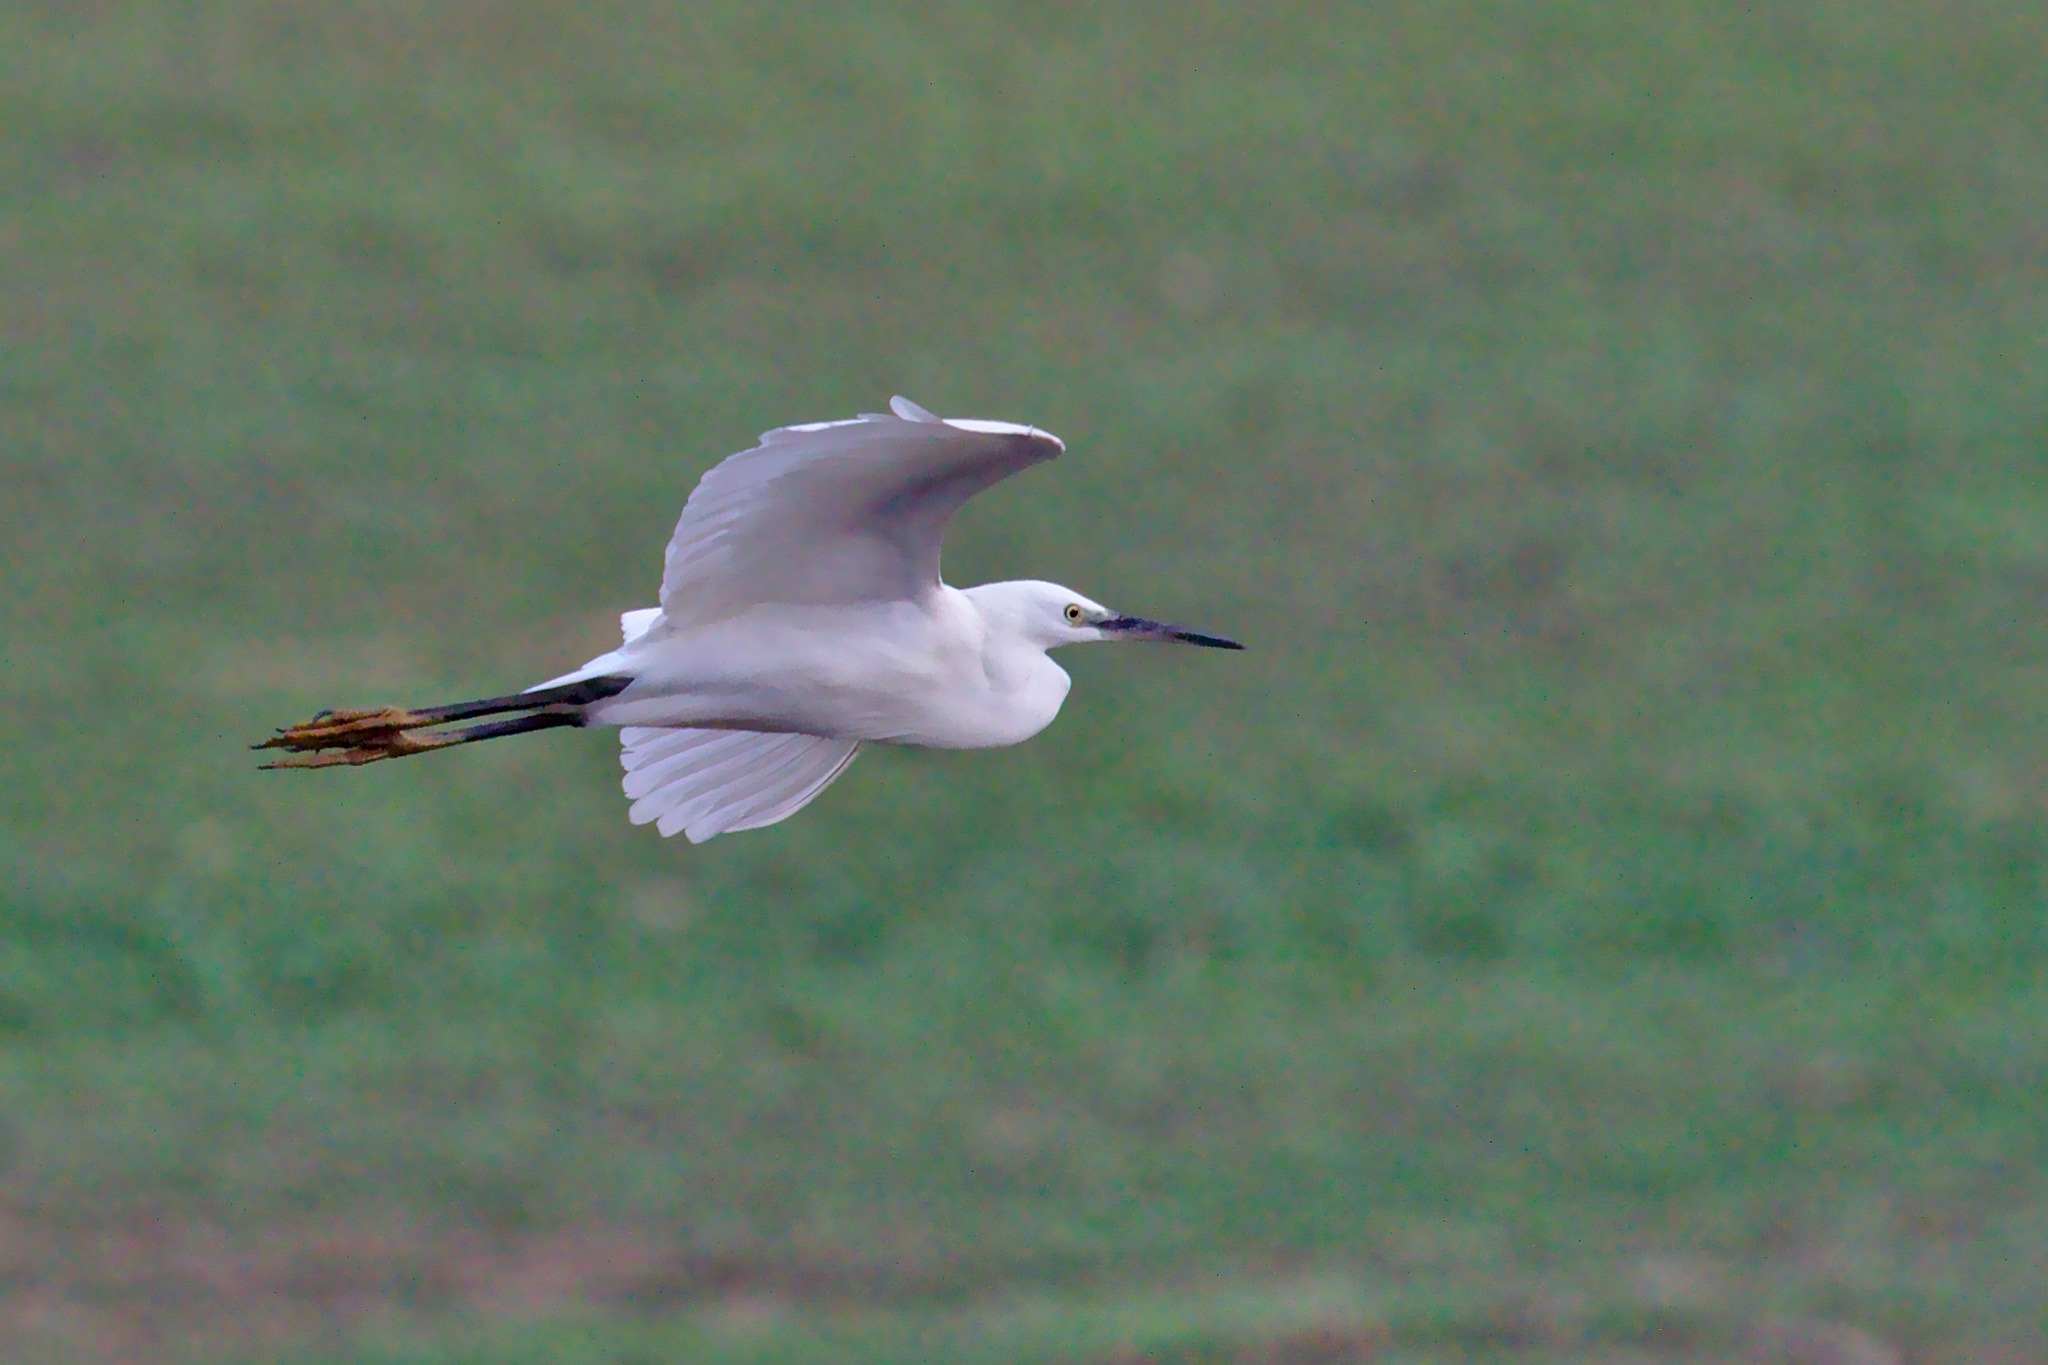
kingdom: Animalia
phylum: Chordata
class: Aves
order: Pelecaniformes
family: Ardeidae
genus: Egretta
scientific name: Egretta garzetta
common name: Little egret
